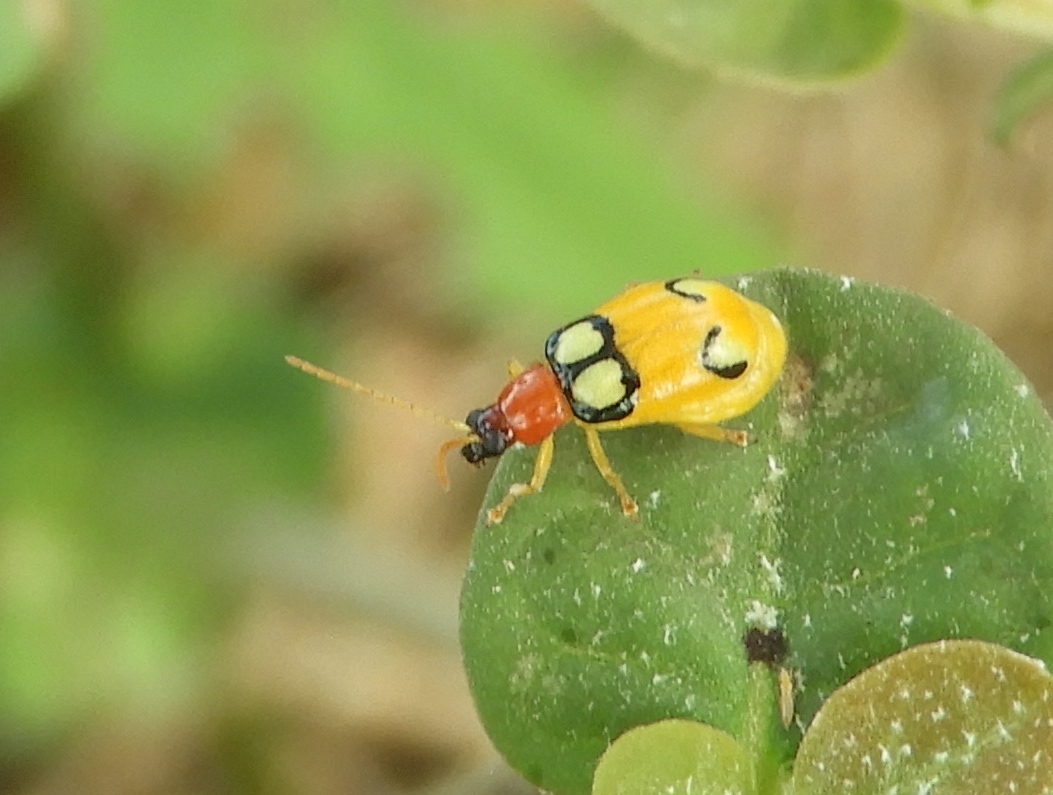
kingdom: Animalia
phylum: Arthropoda
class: Insecta
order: Coleoptera
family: Chrysomelidae
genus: Diabrotica
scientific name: Diabrotica
